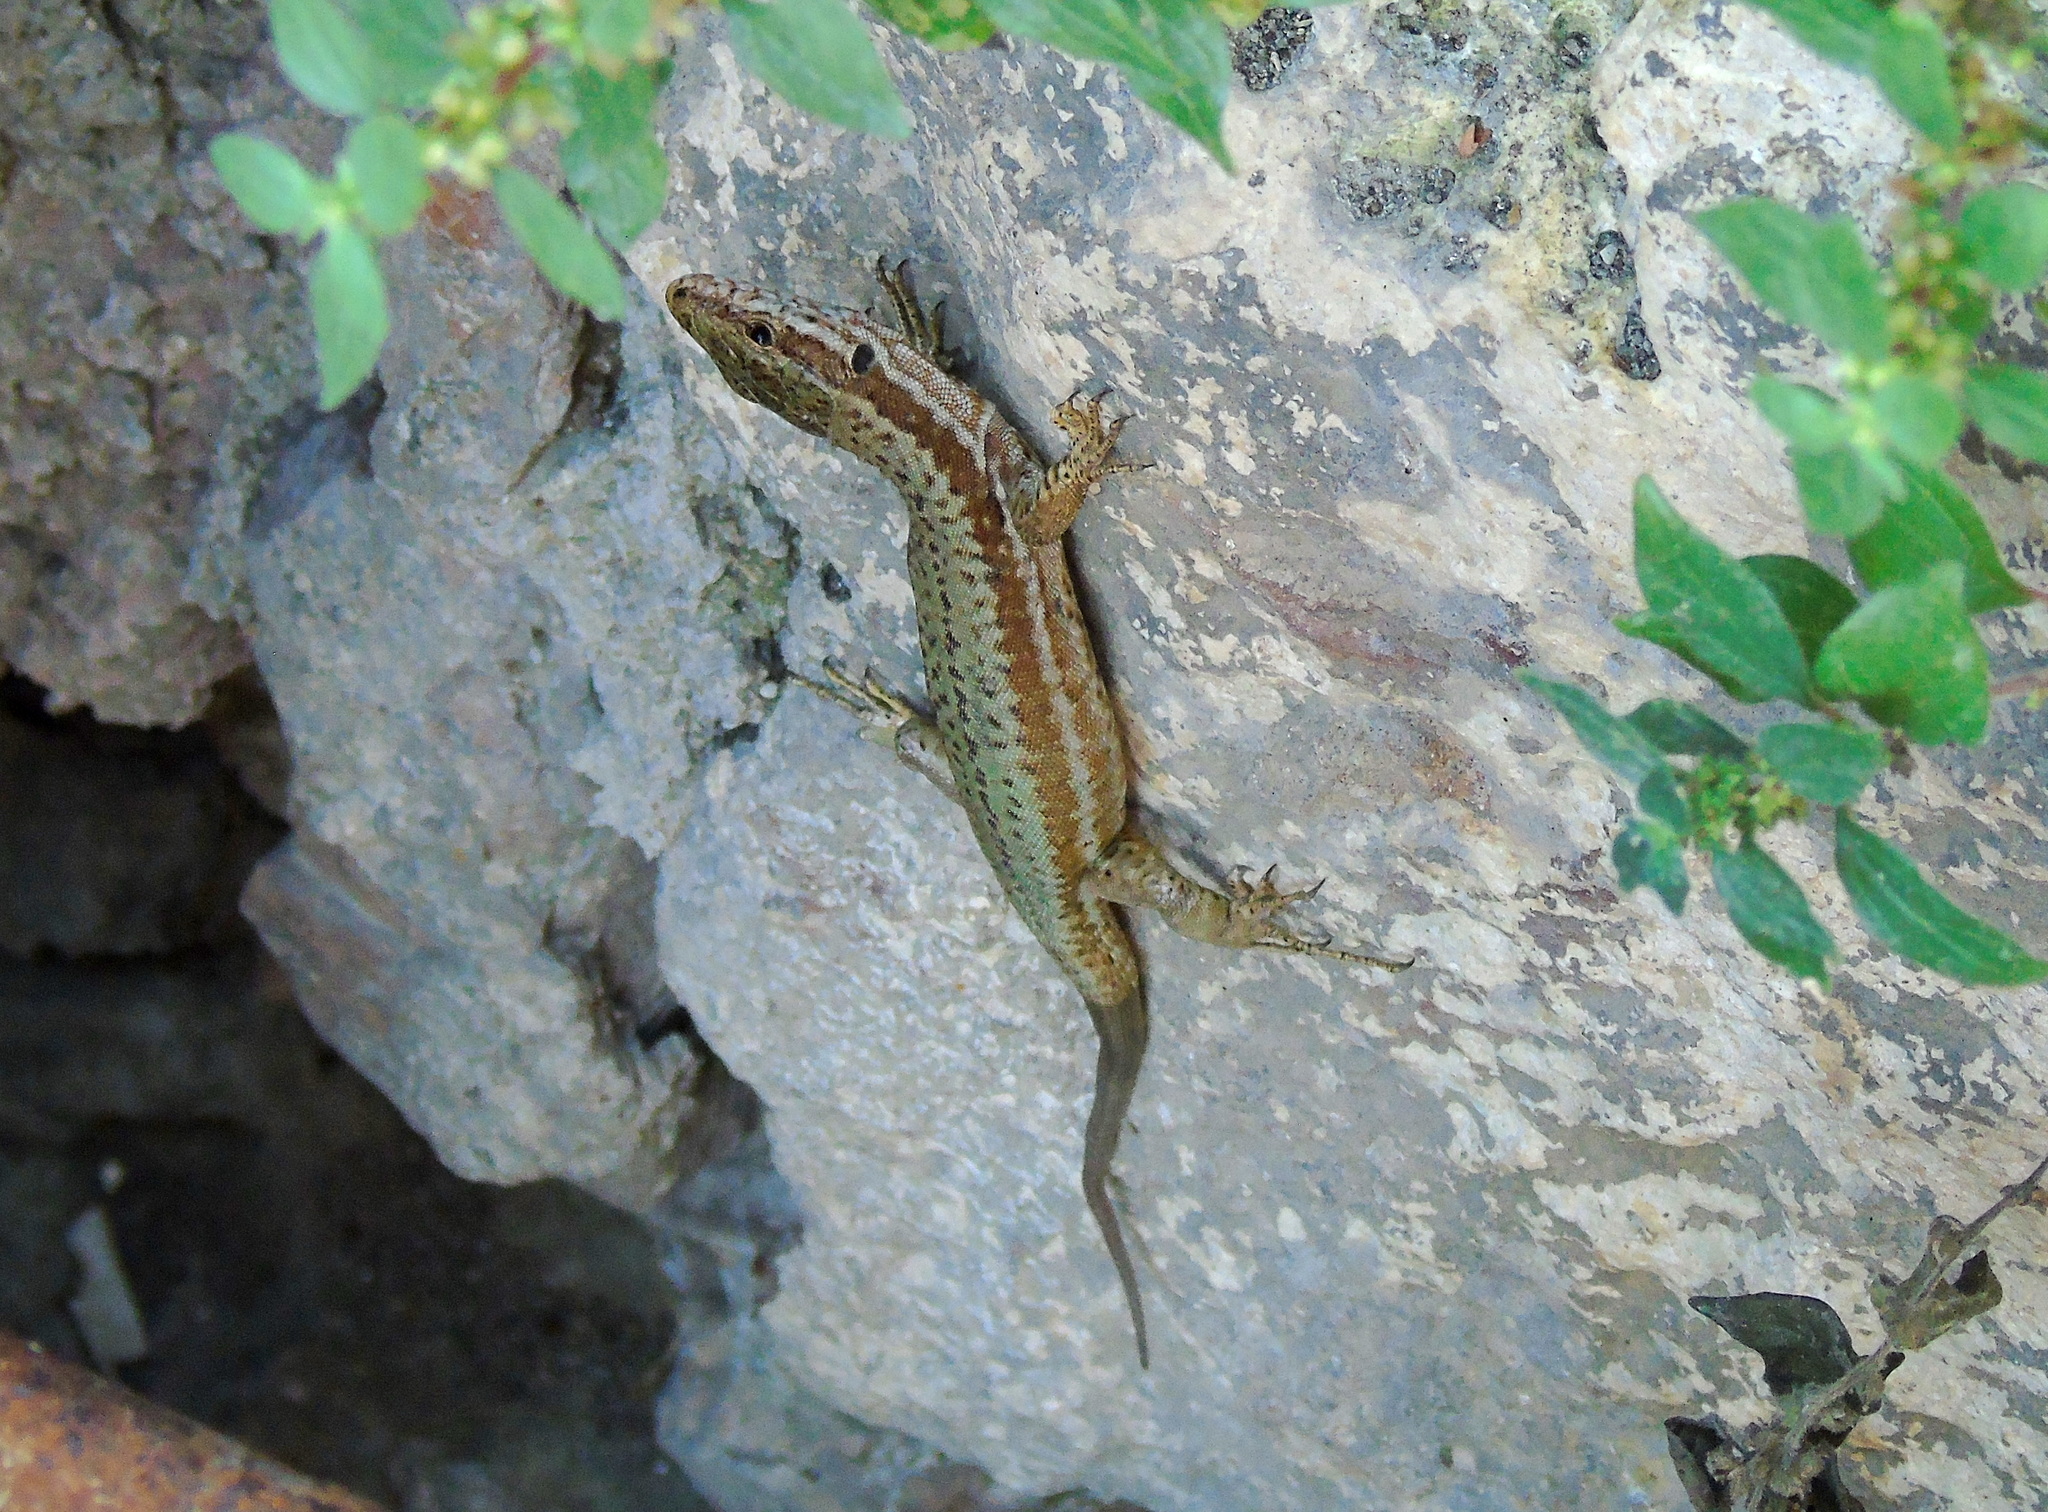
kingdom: Animalia
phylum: Chordata
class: Squamata
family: Lacertidae
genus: Podarcis
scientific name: Podarcis muralis
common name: Common wall lizard
